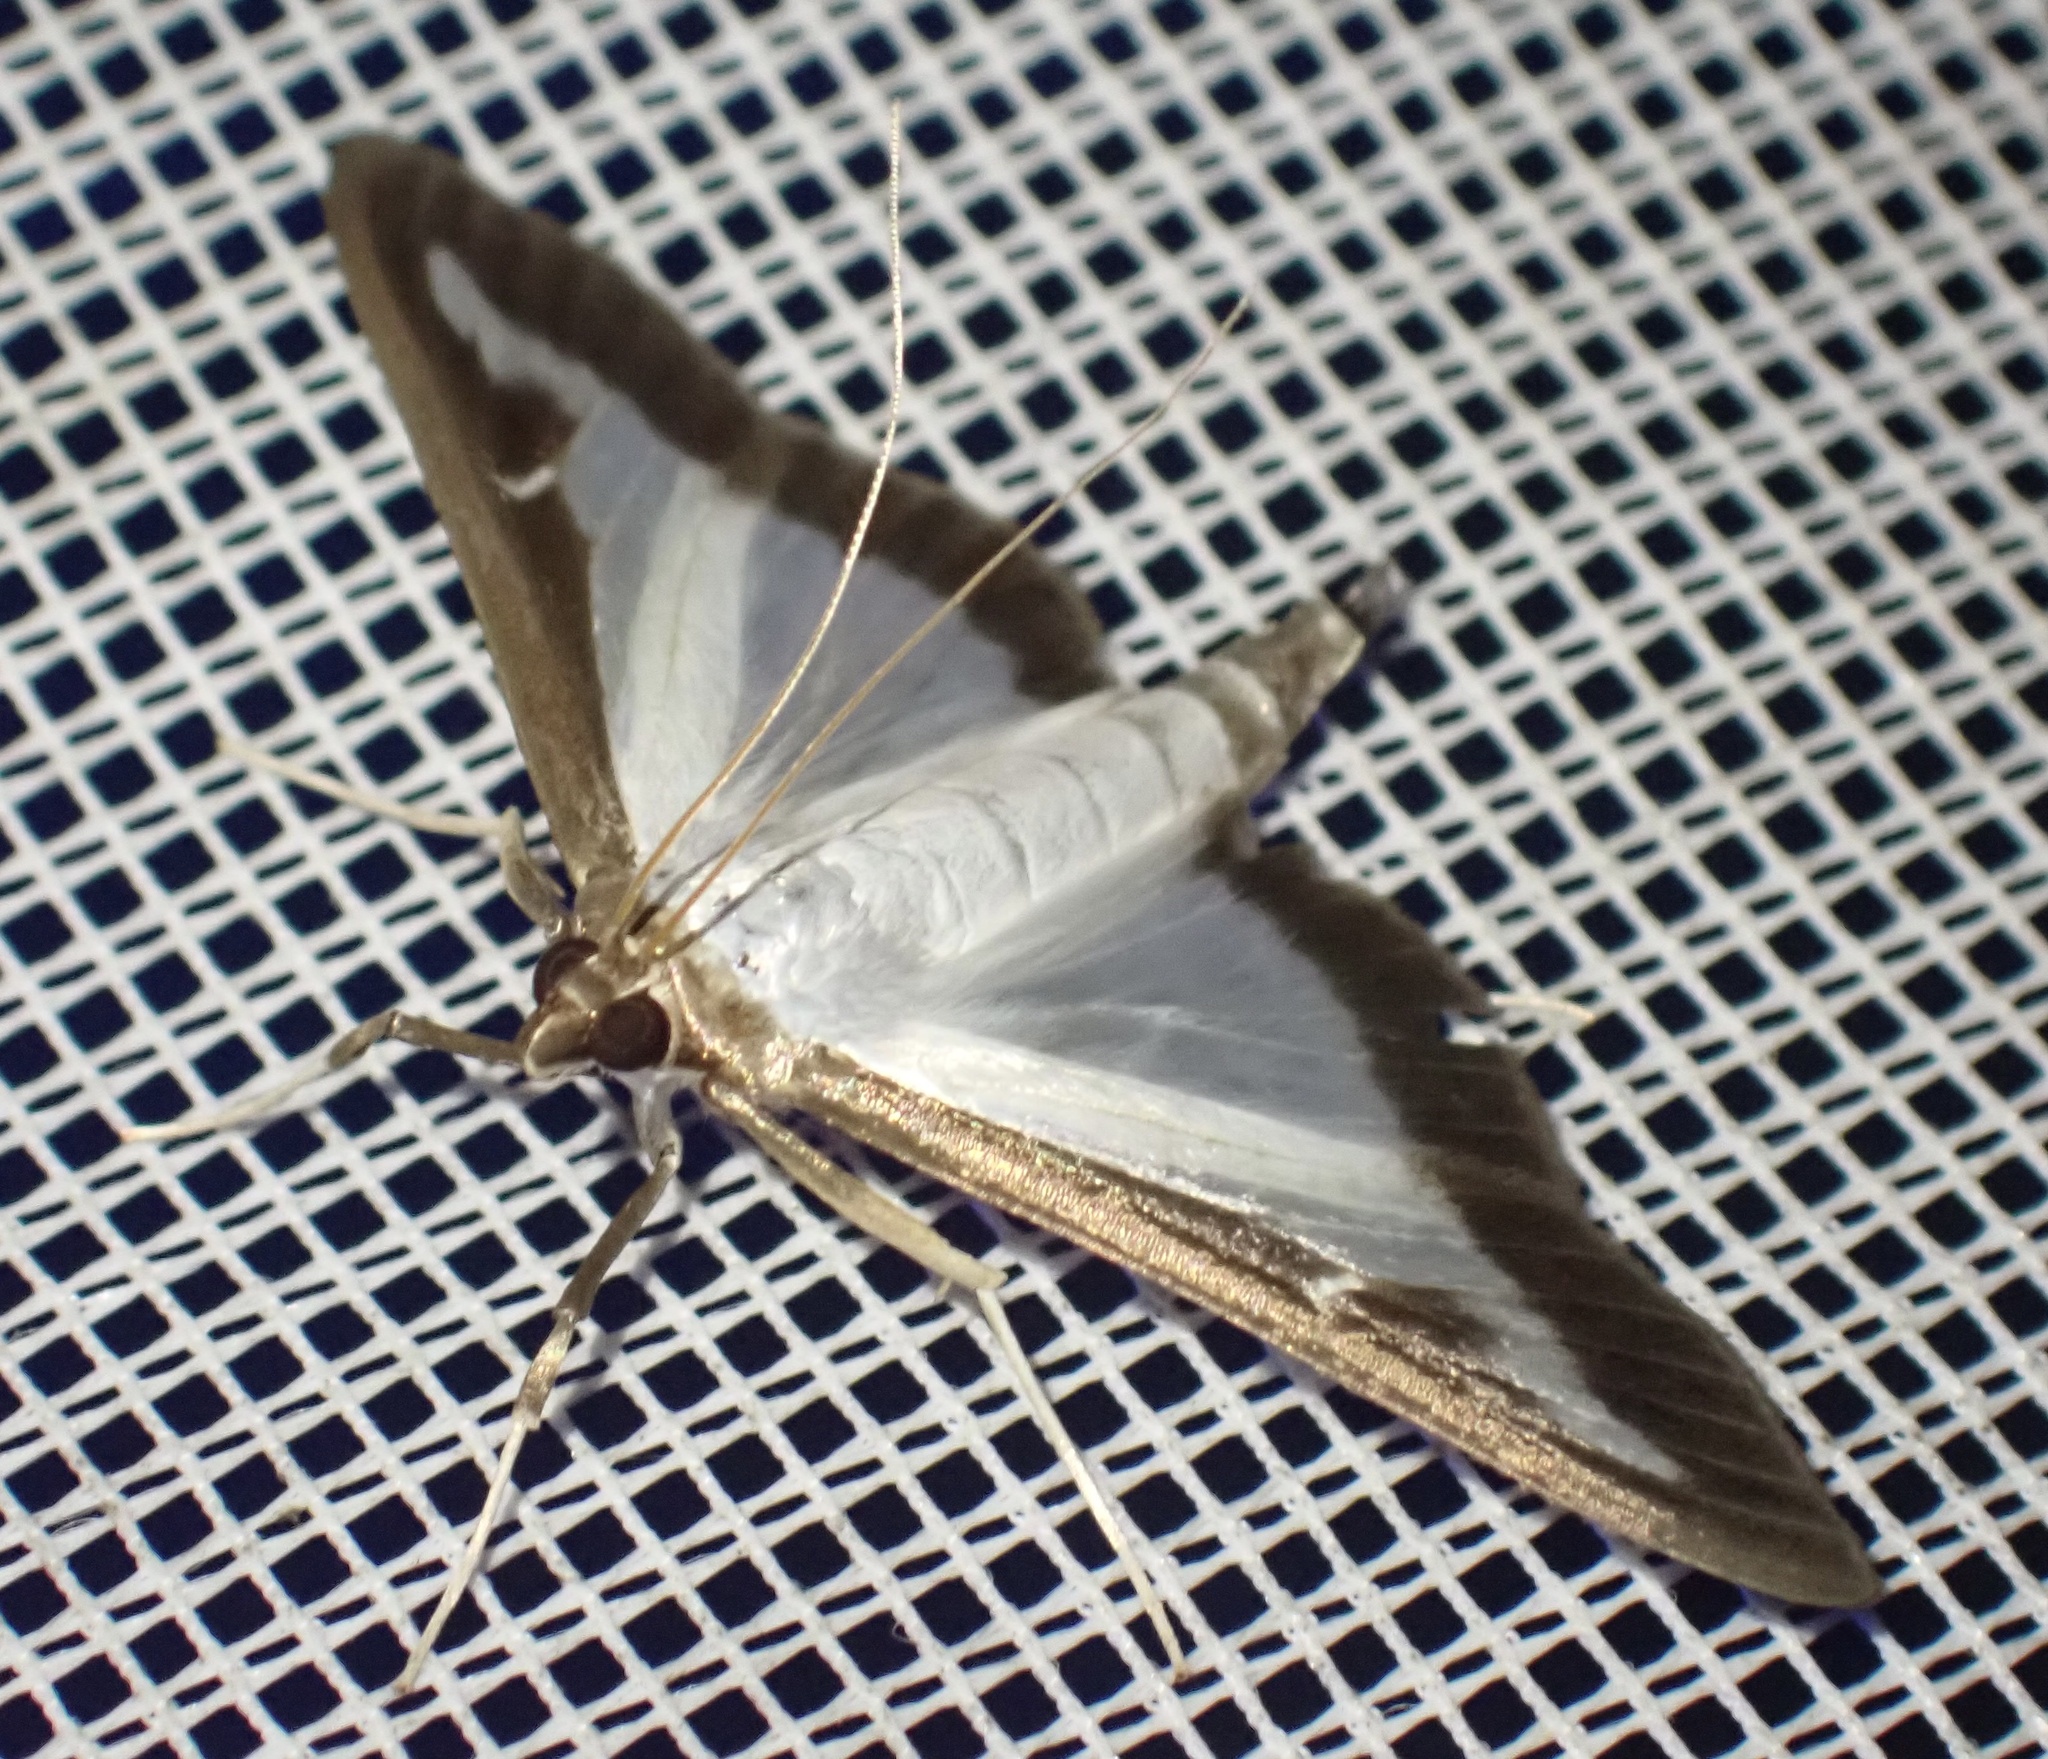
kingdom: Animalia
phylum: Arthropoda
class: Insecta
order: Lepidoptera
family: Crambidae
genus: Cydalima
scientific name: Cydalima perspectalis
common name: Box tree moth
